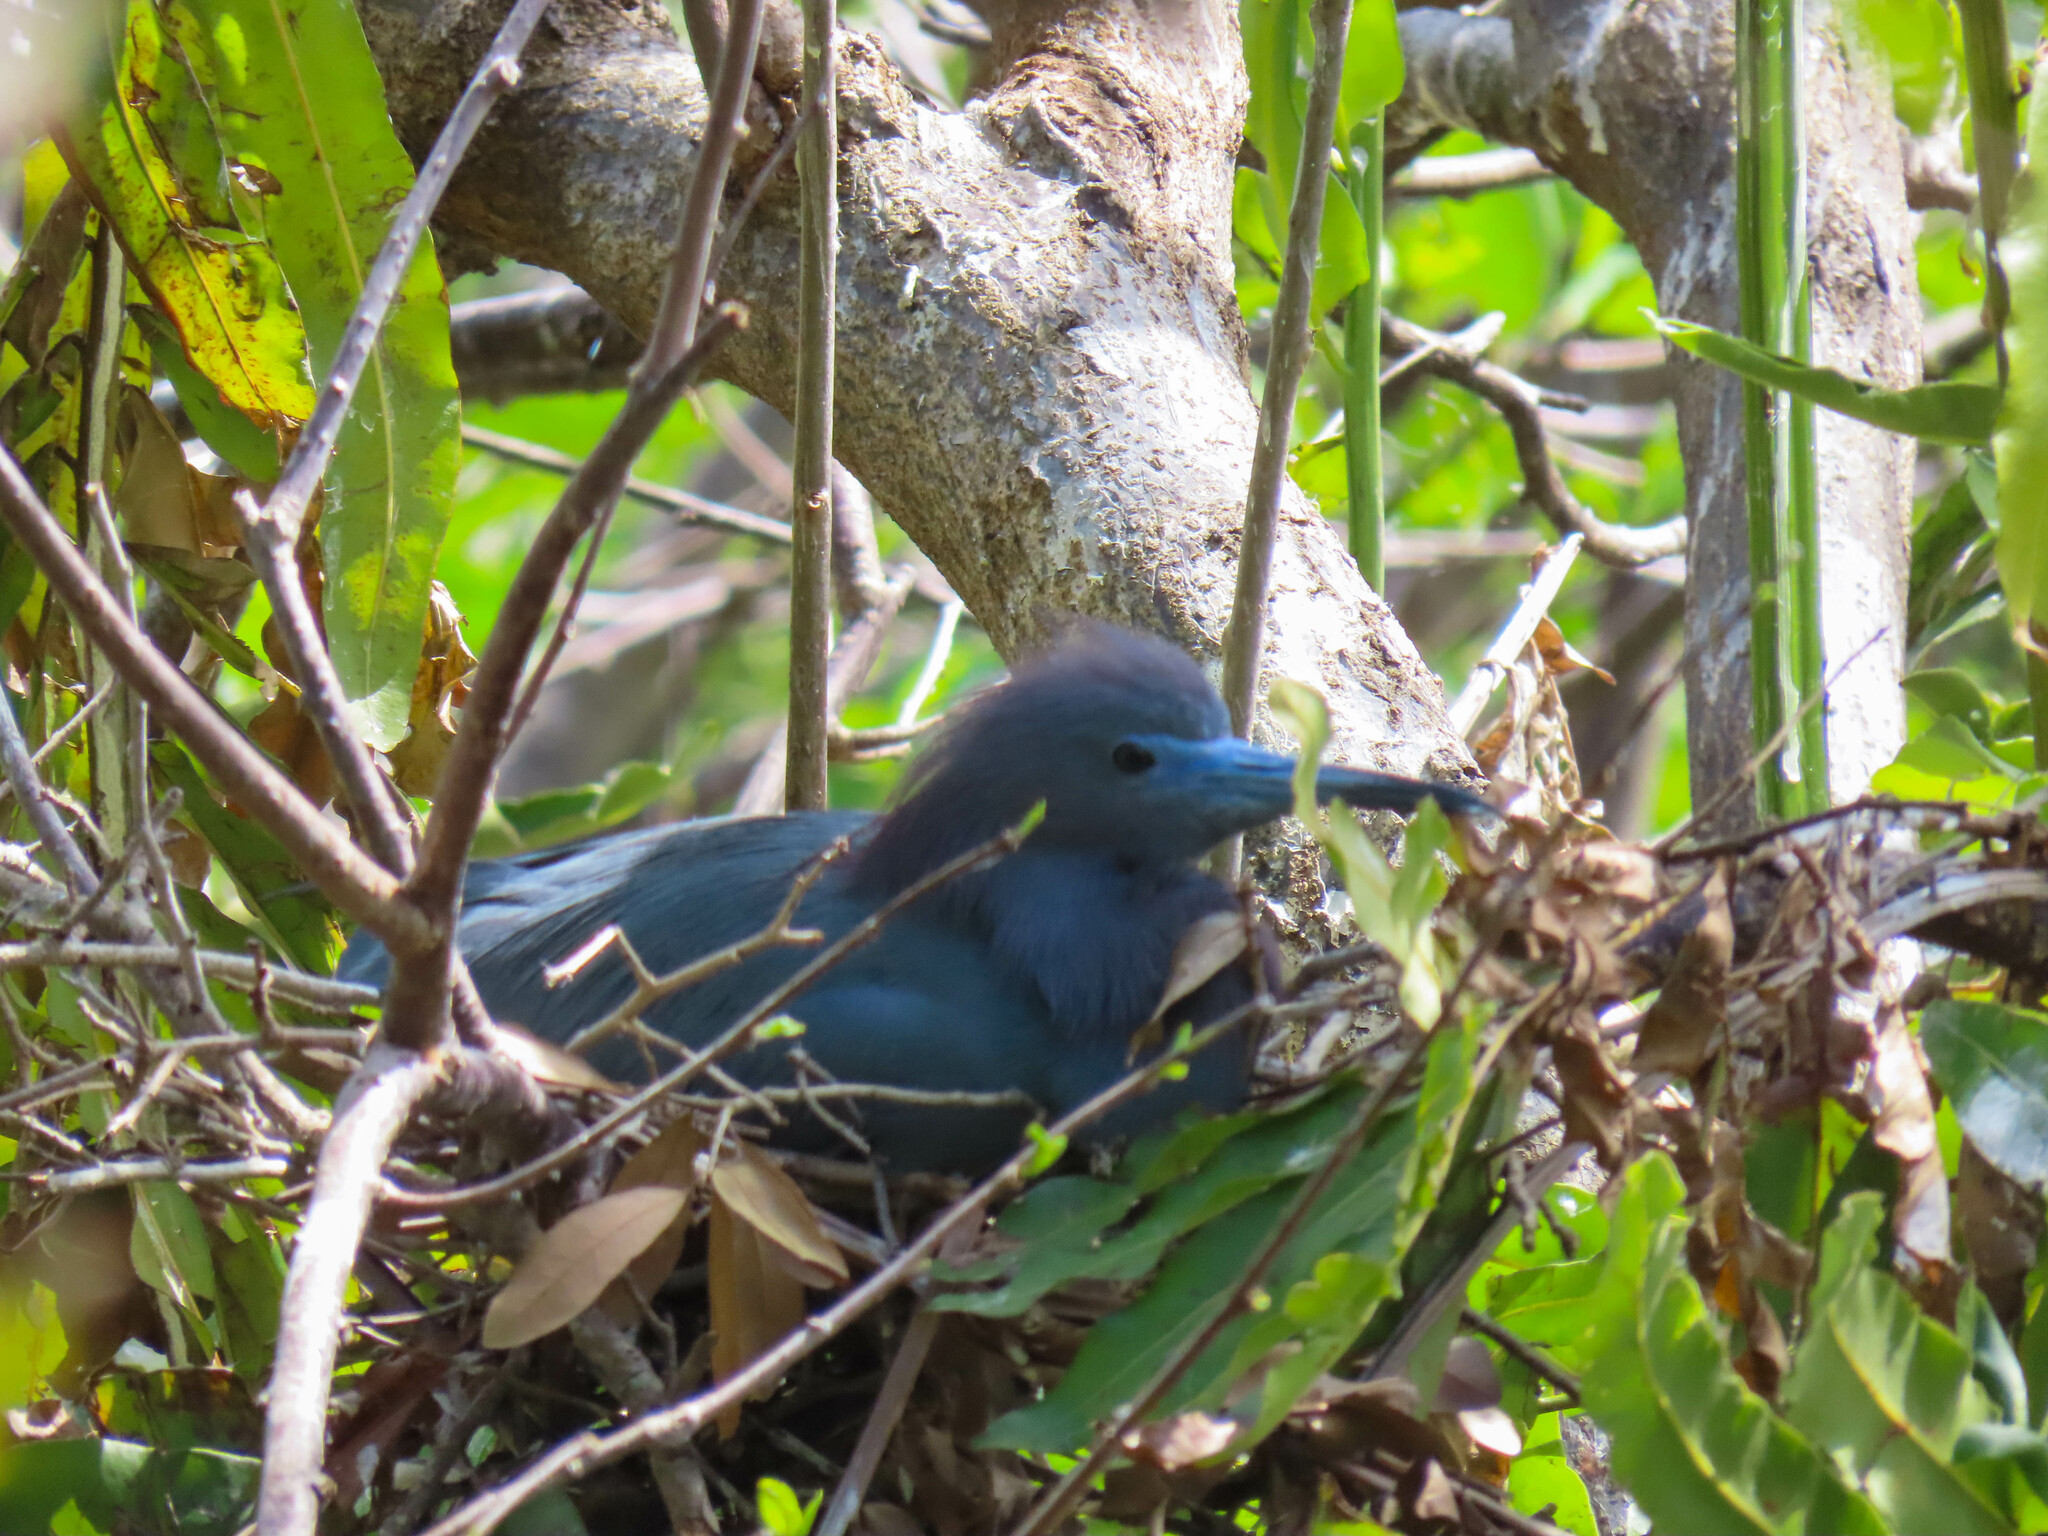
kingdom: Animalia
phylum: Chordata
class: Aves
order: Pelecaniformes
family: Ardeidae
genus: Egretta
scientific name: Egretta caerulea
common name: Little blue heron
